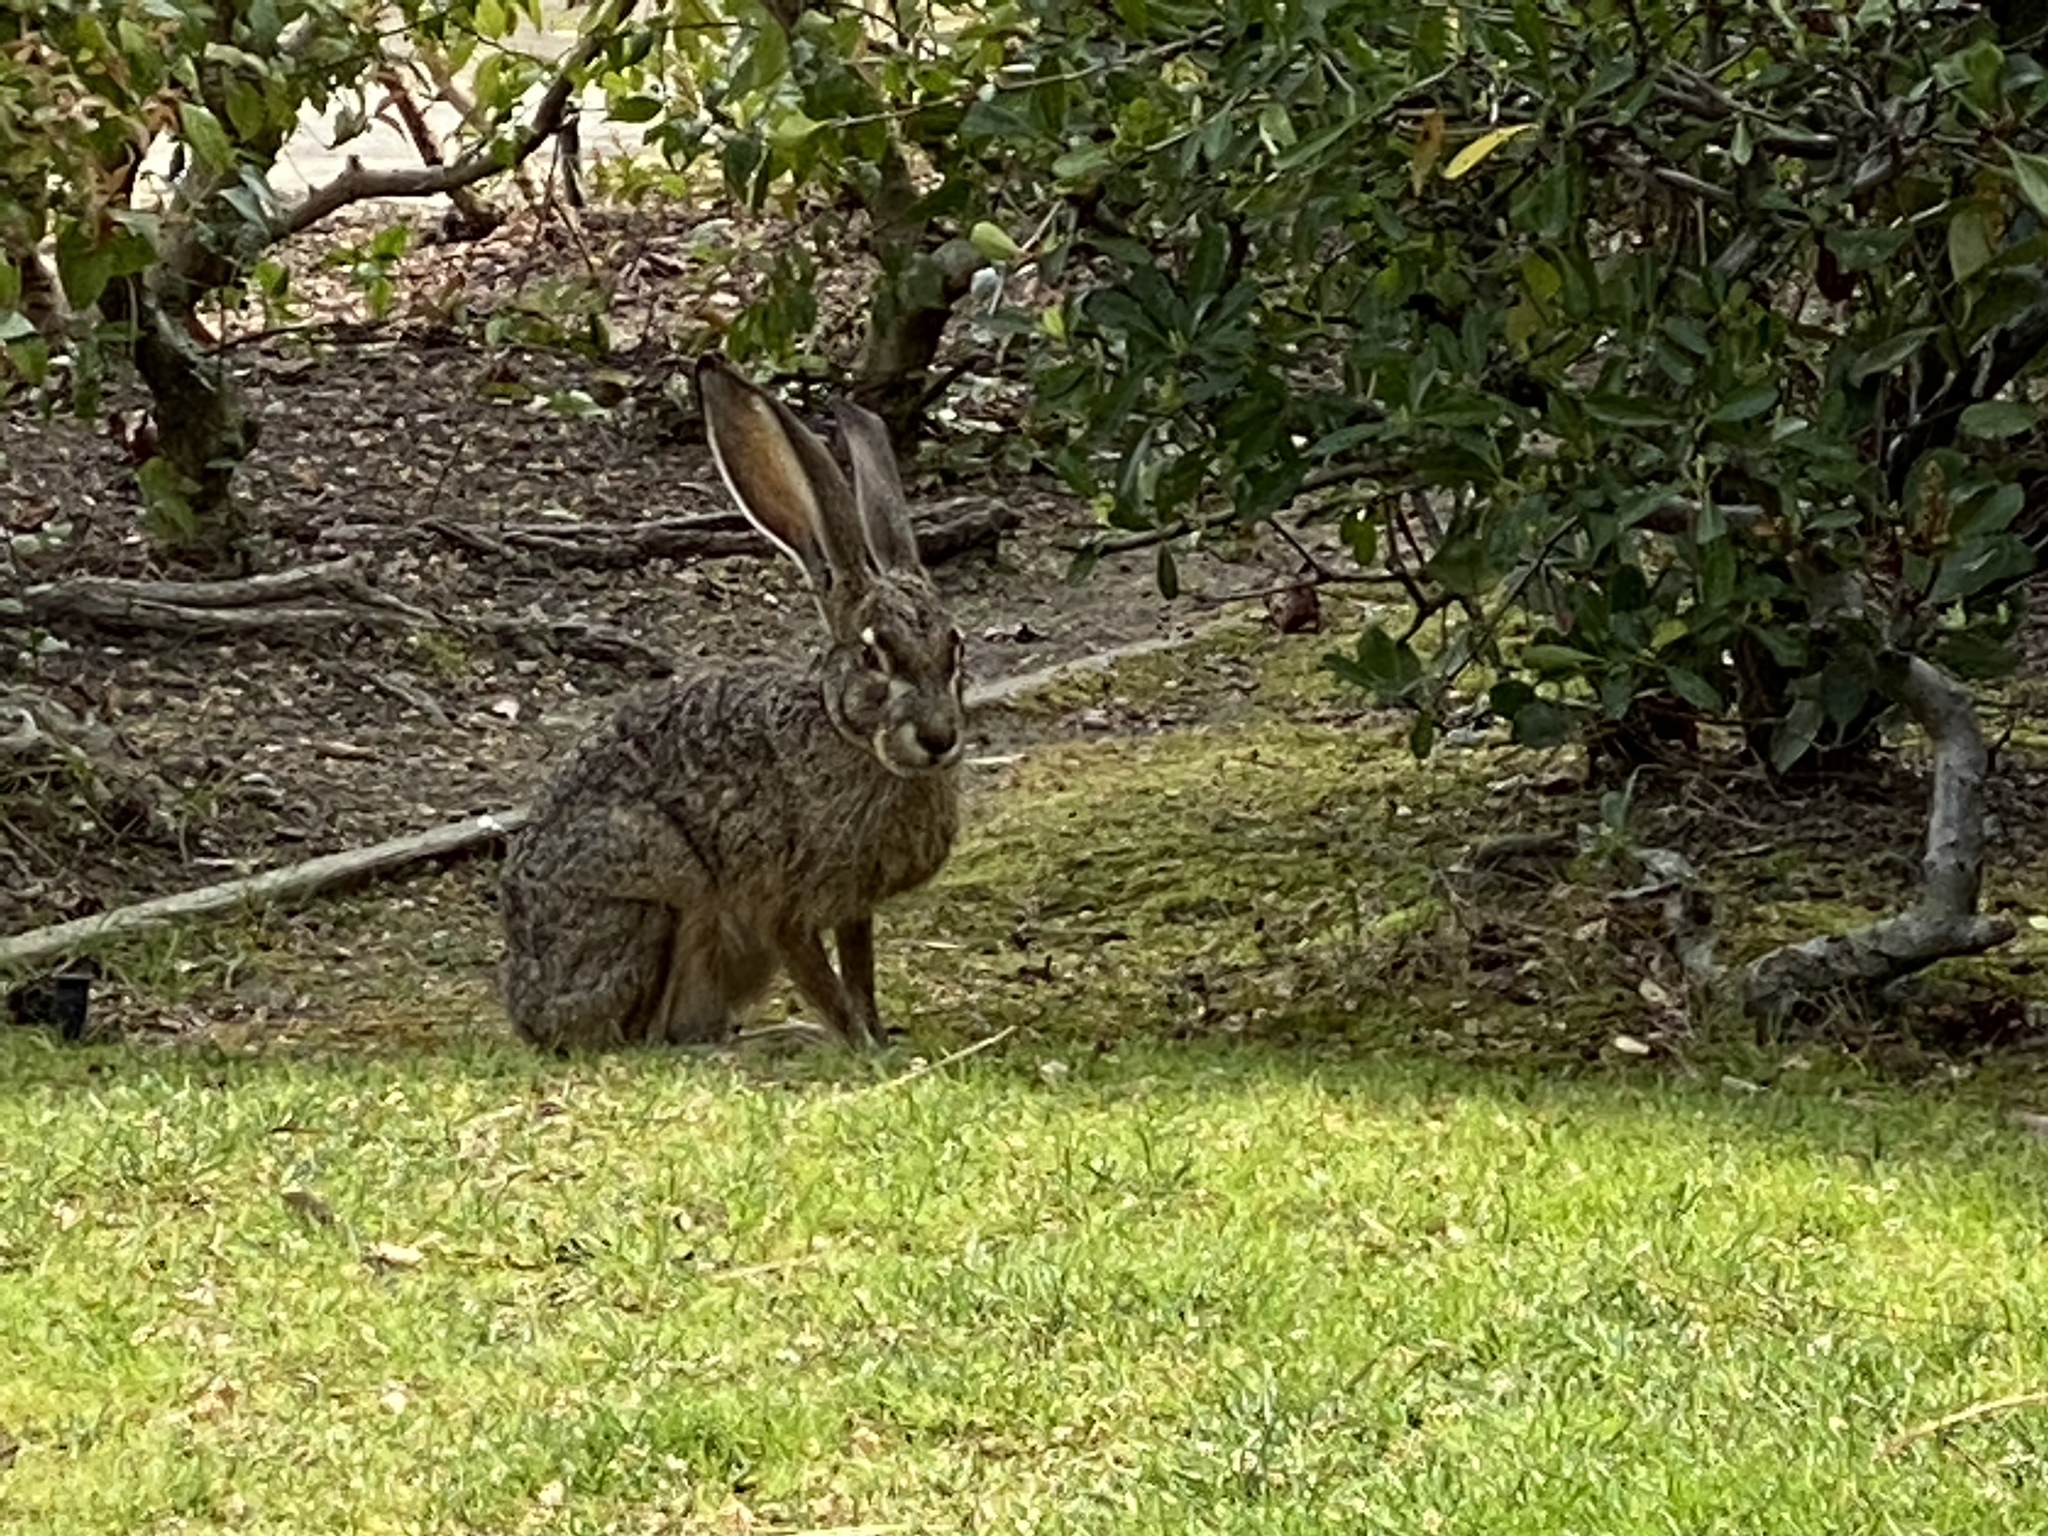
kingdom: Animalia
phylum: Chordata
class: Mammalia
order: Lagomorpha
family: Leporidae
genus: Lepus
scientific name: Lepus californicus
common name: Black-tailed jackrabbit
